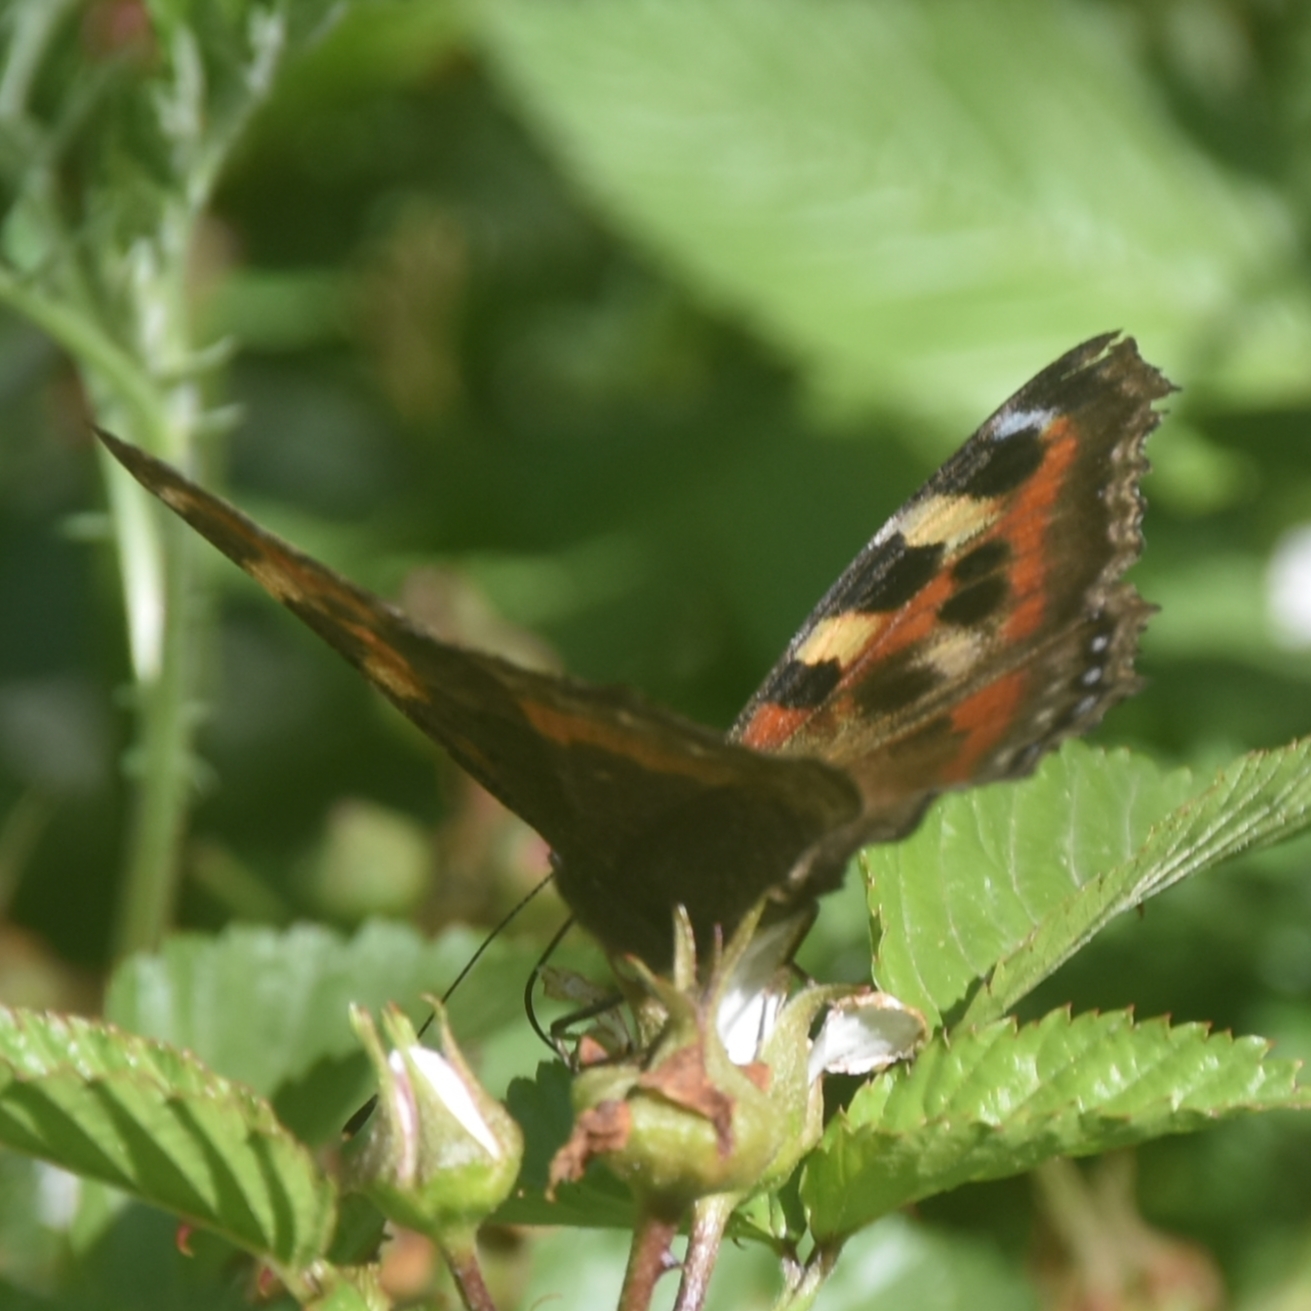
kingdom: Animalia
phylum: Arthropoda
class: Insecta
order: Lepidoptera
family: Nymphalidae
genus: Aglais
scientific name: Aglais caschmirensis
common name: Indian tortoiseshell
